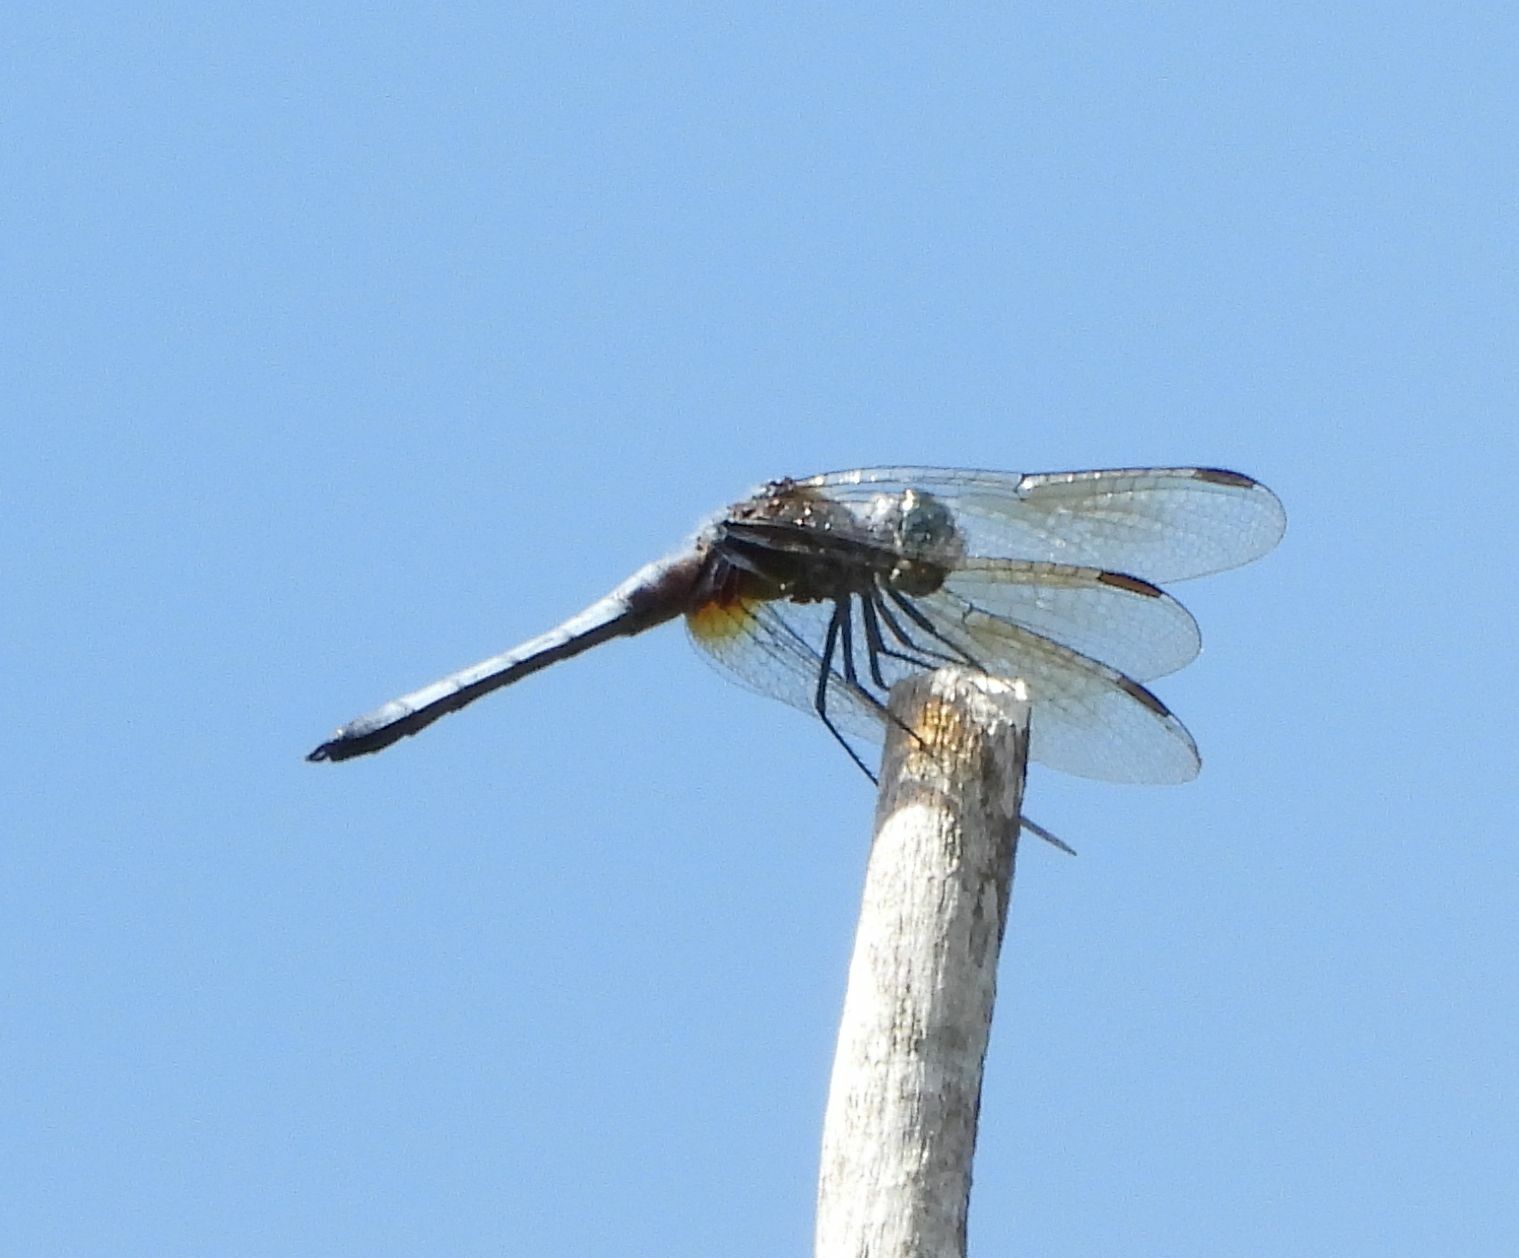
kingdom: Animalia
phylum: Arthropoda
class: Insecta
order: Odonata
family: Libellulidae
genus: Pachydiplax
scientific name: Pachydiplax longipennis
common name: Blue dasher
